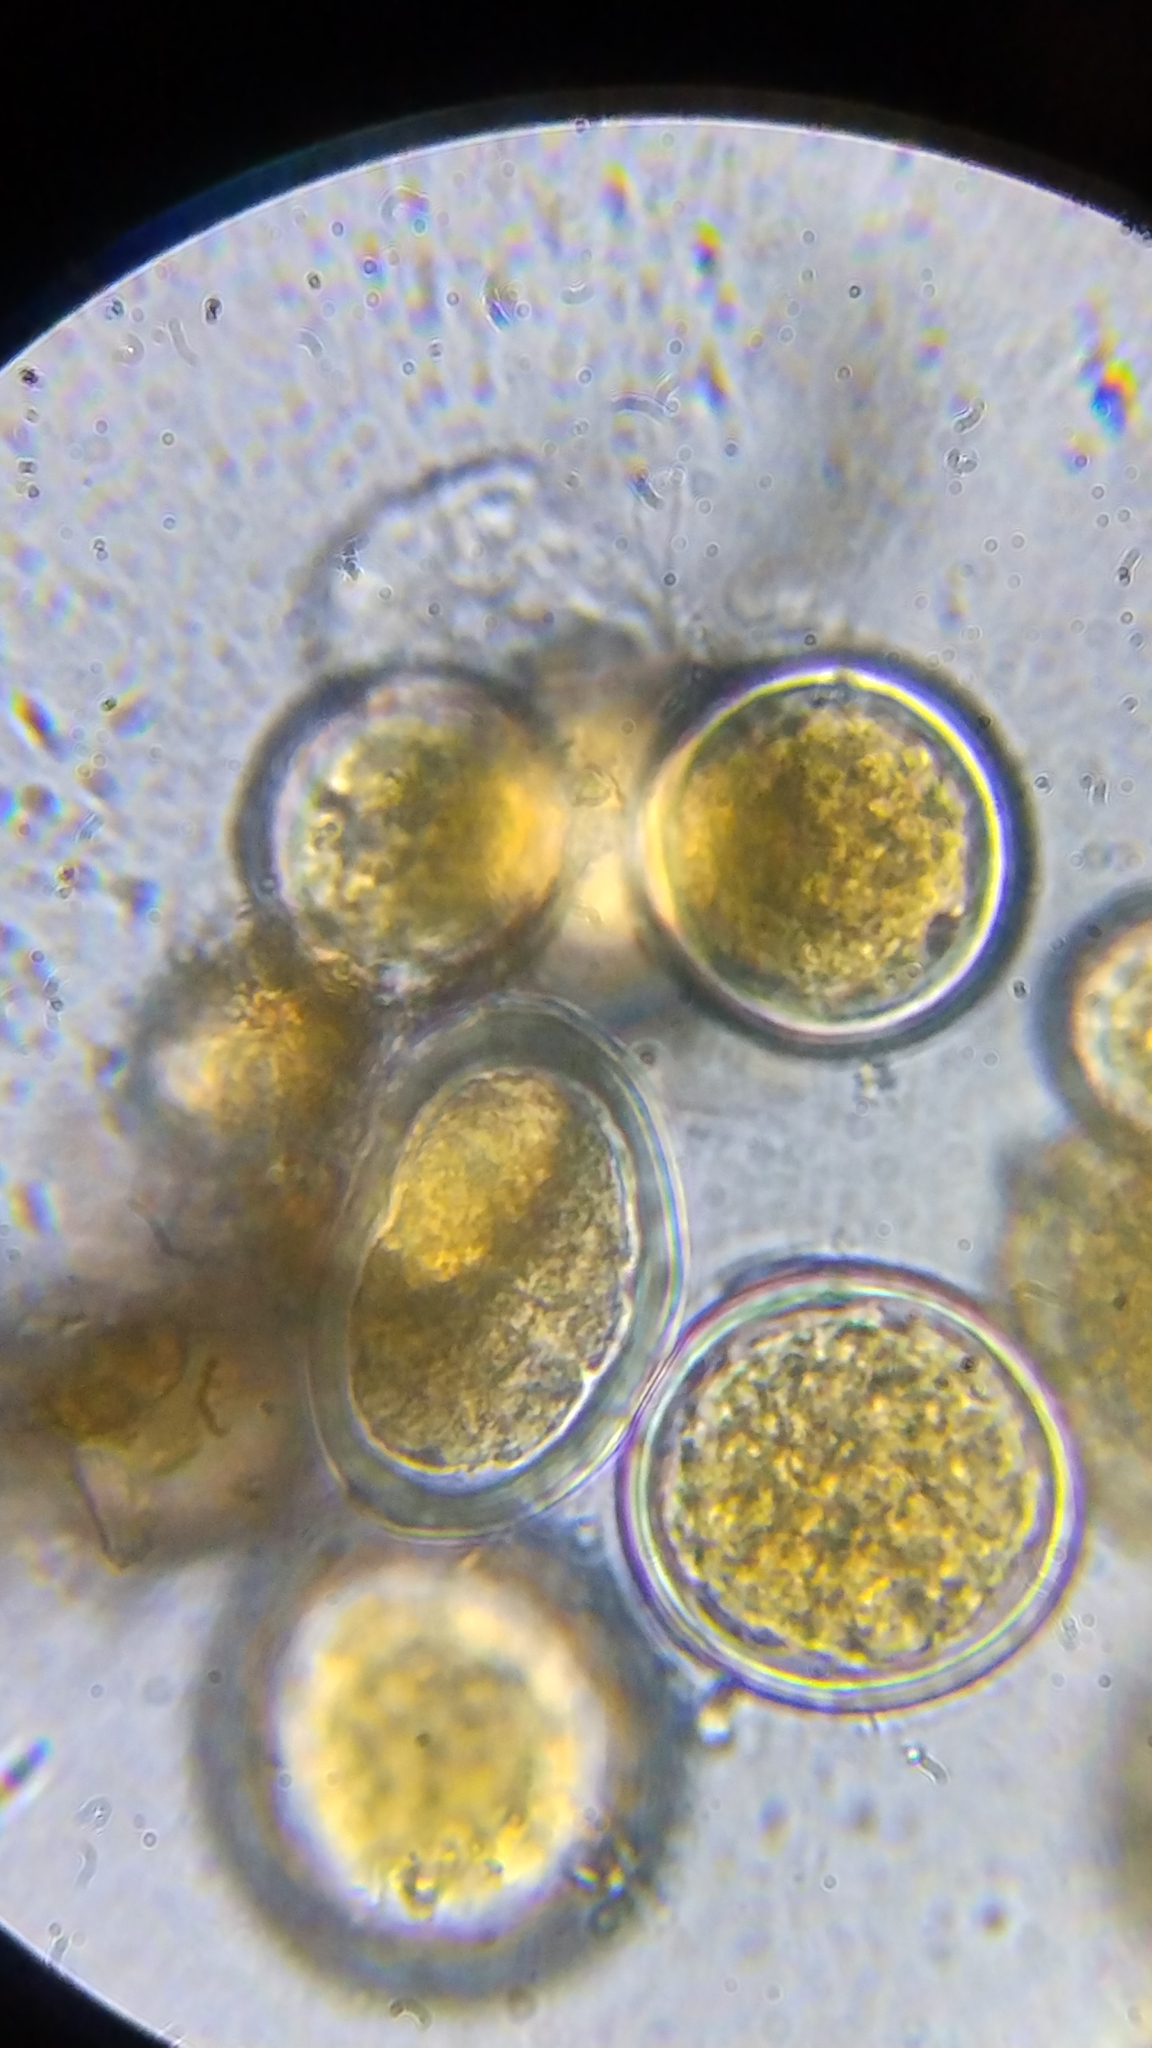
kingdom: Fungi
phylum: Ascomycota
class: Pezizomycetes
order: Pezizales
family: Pyronemataceae
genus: Sphaerosporium
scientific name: Sphaerosporium lignatile
